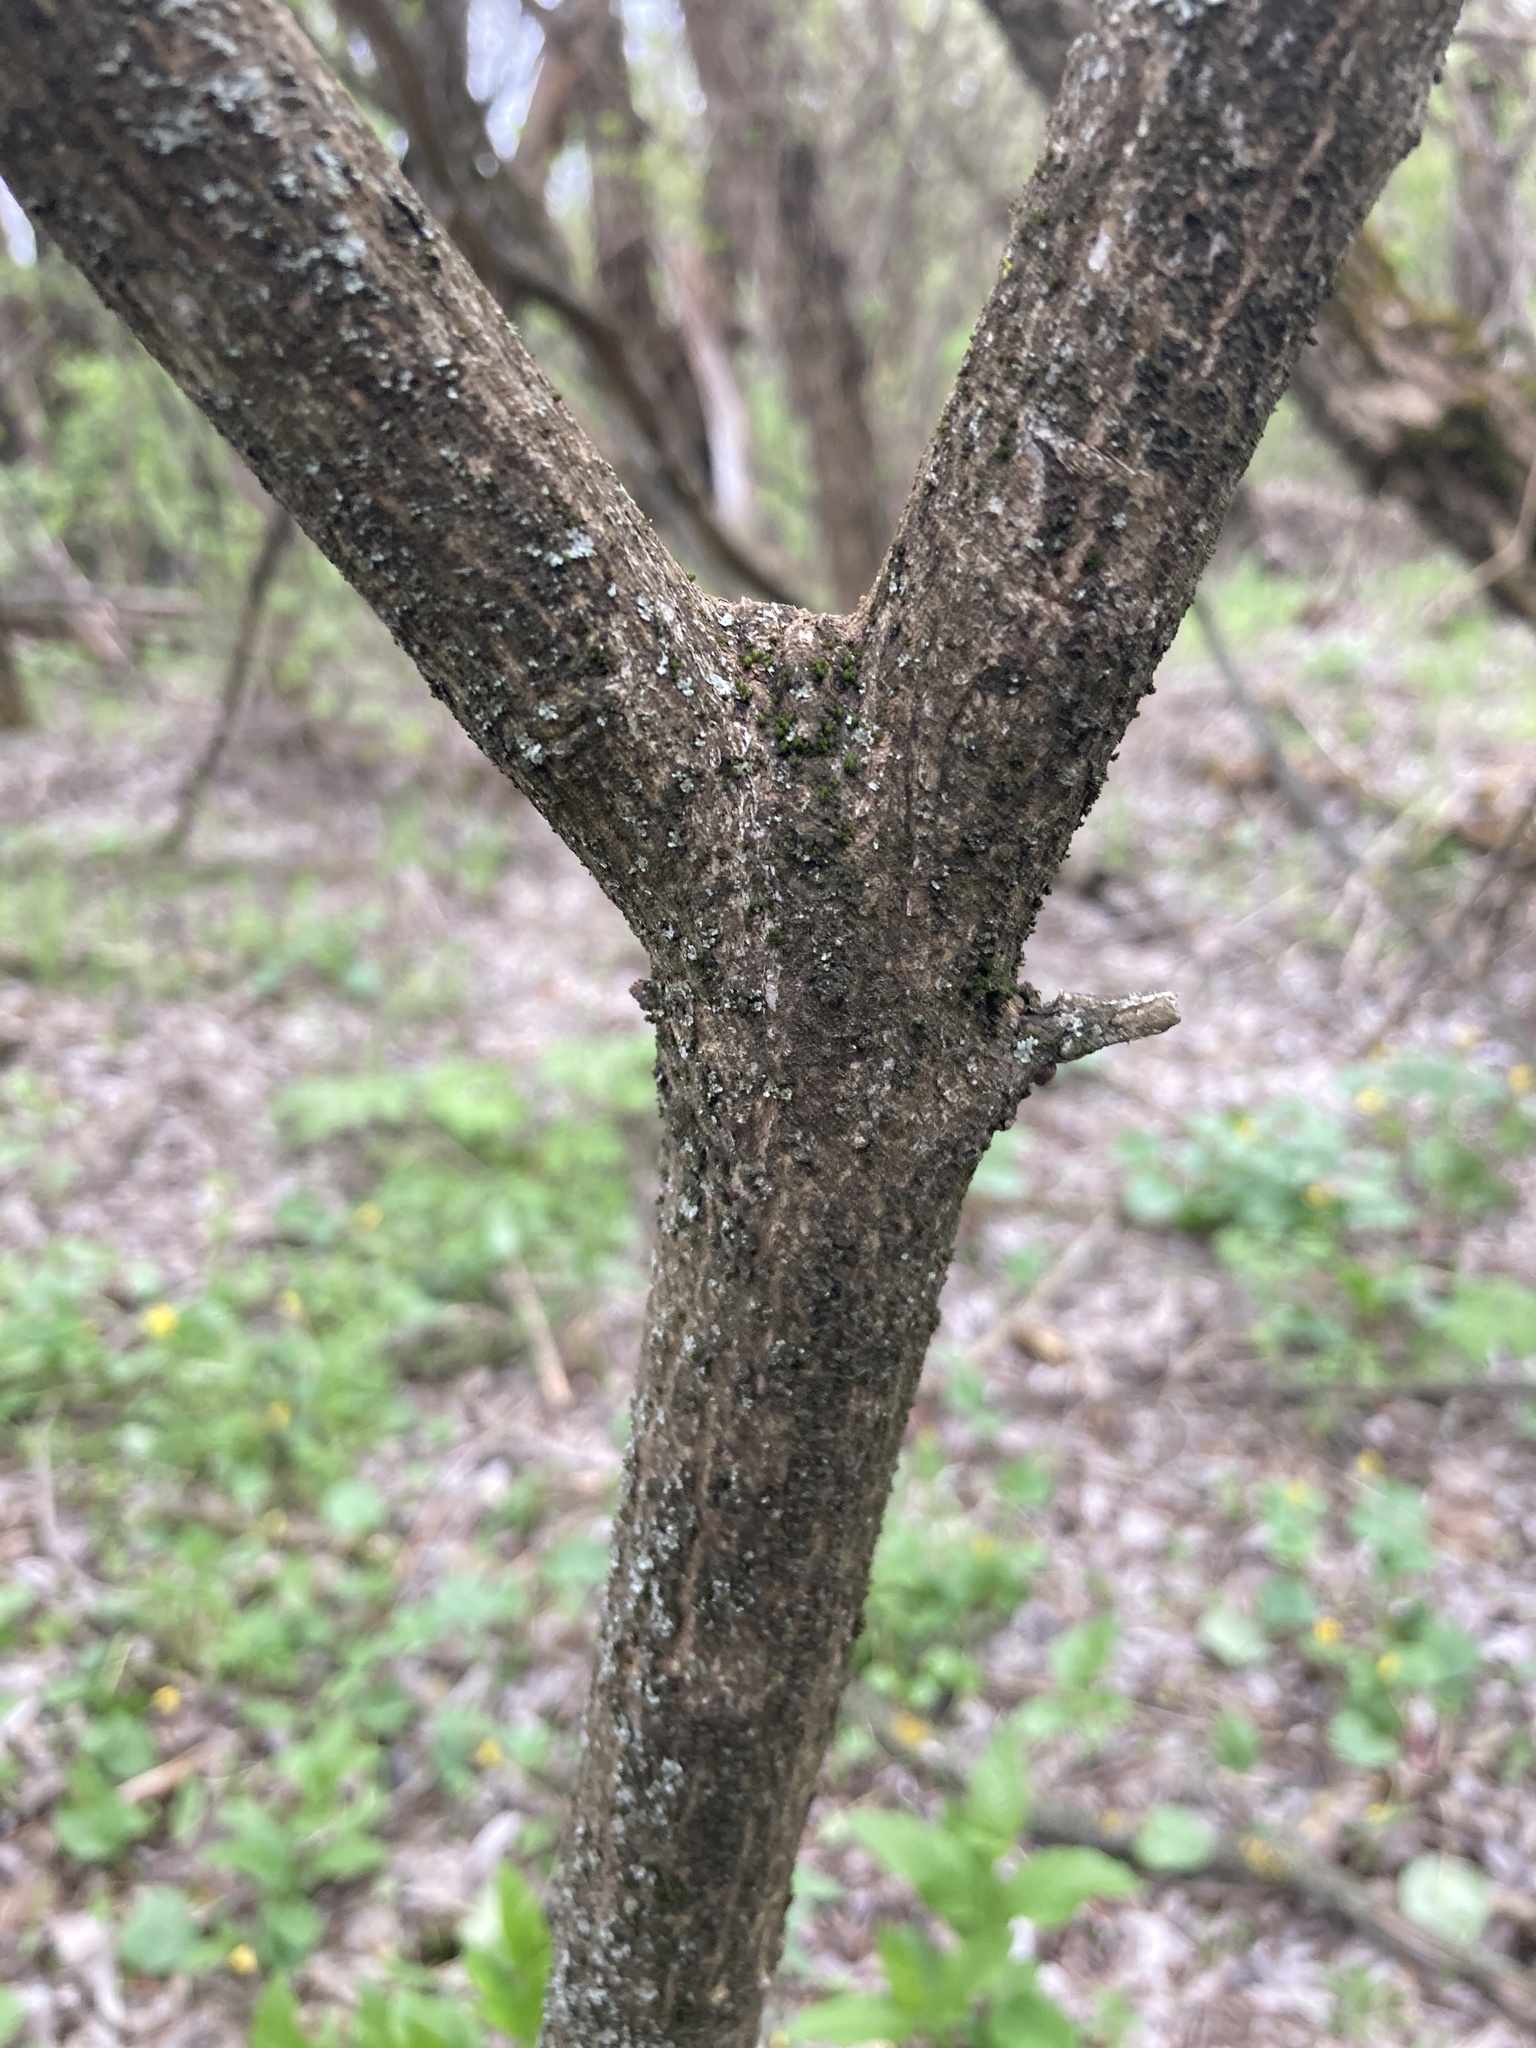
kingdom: Plantae
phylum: Tracheophyta
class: Magnoliopsida
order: Celastrales
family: Celastraceae
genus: Euonymus
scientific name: Euonymus europaeus
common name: Spindle
